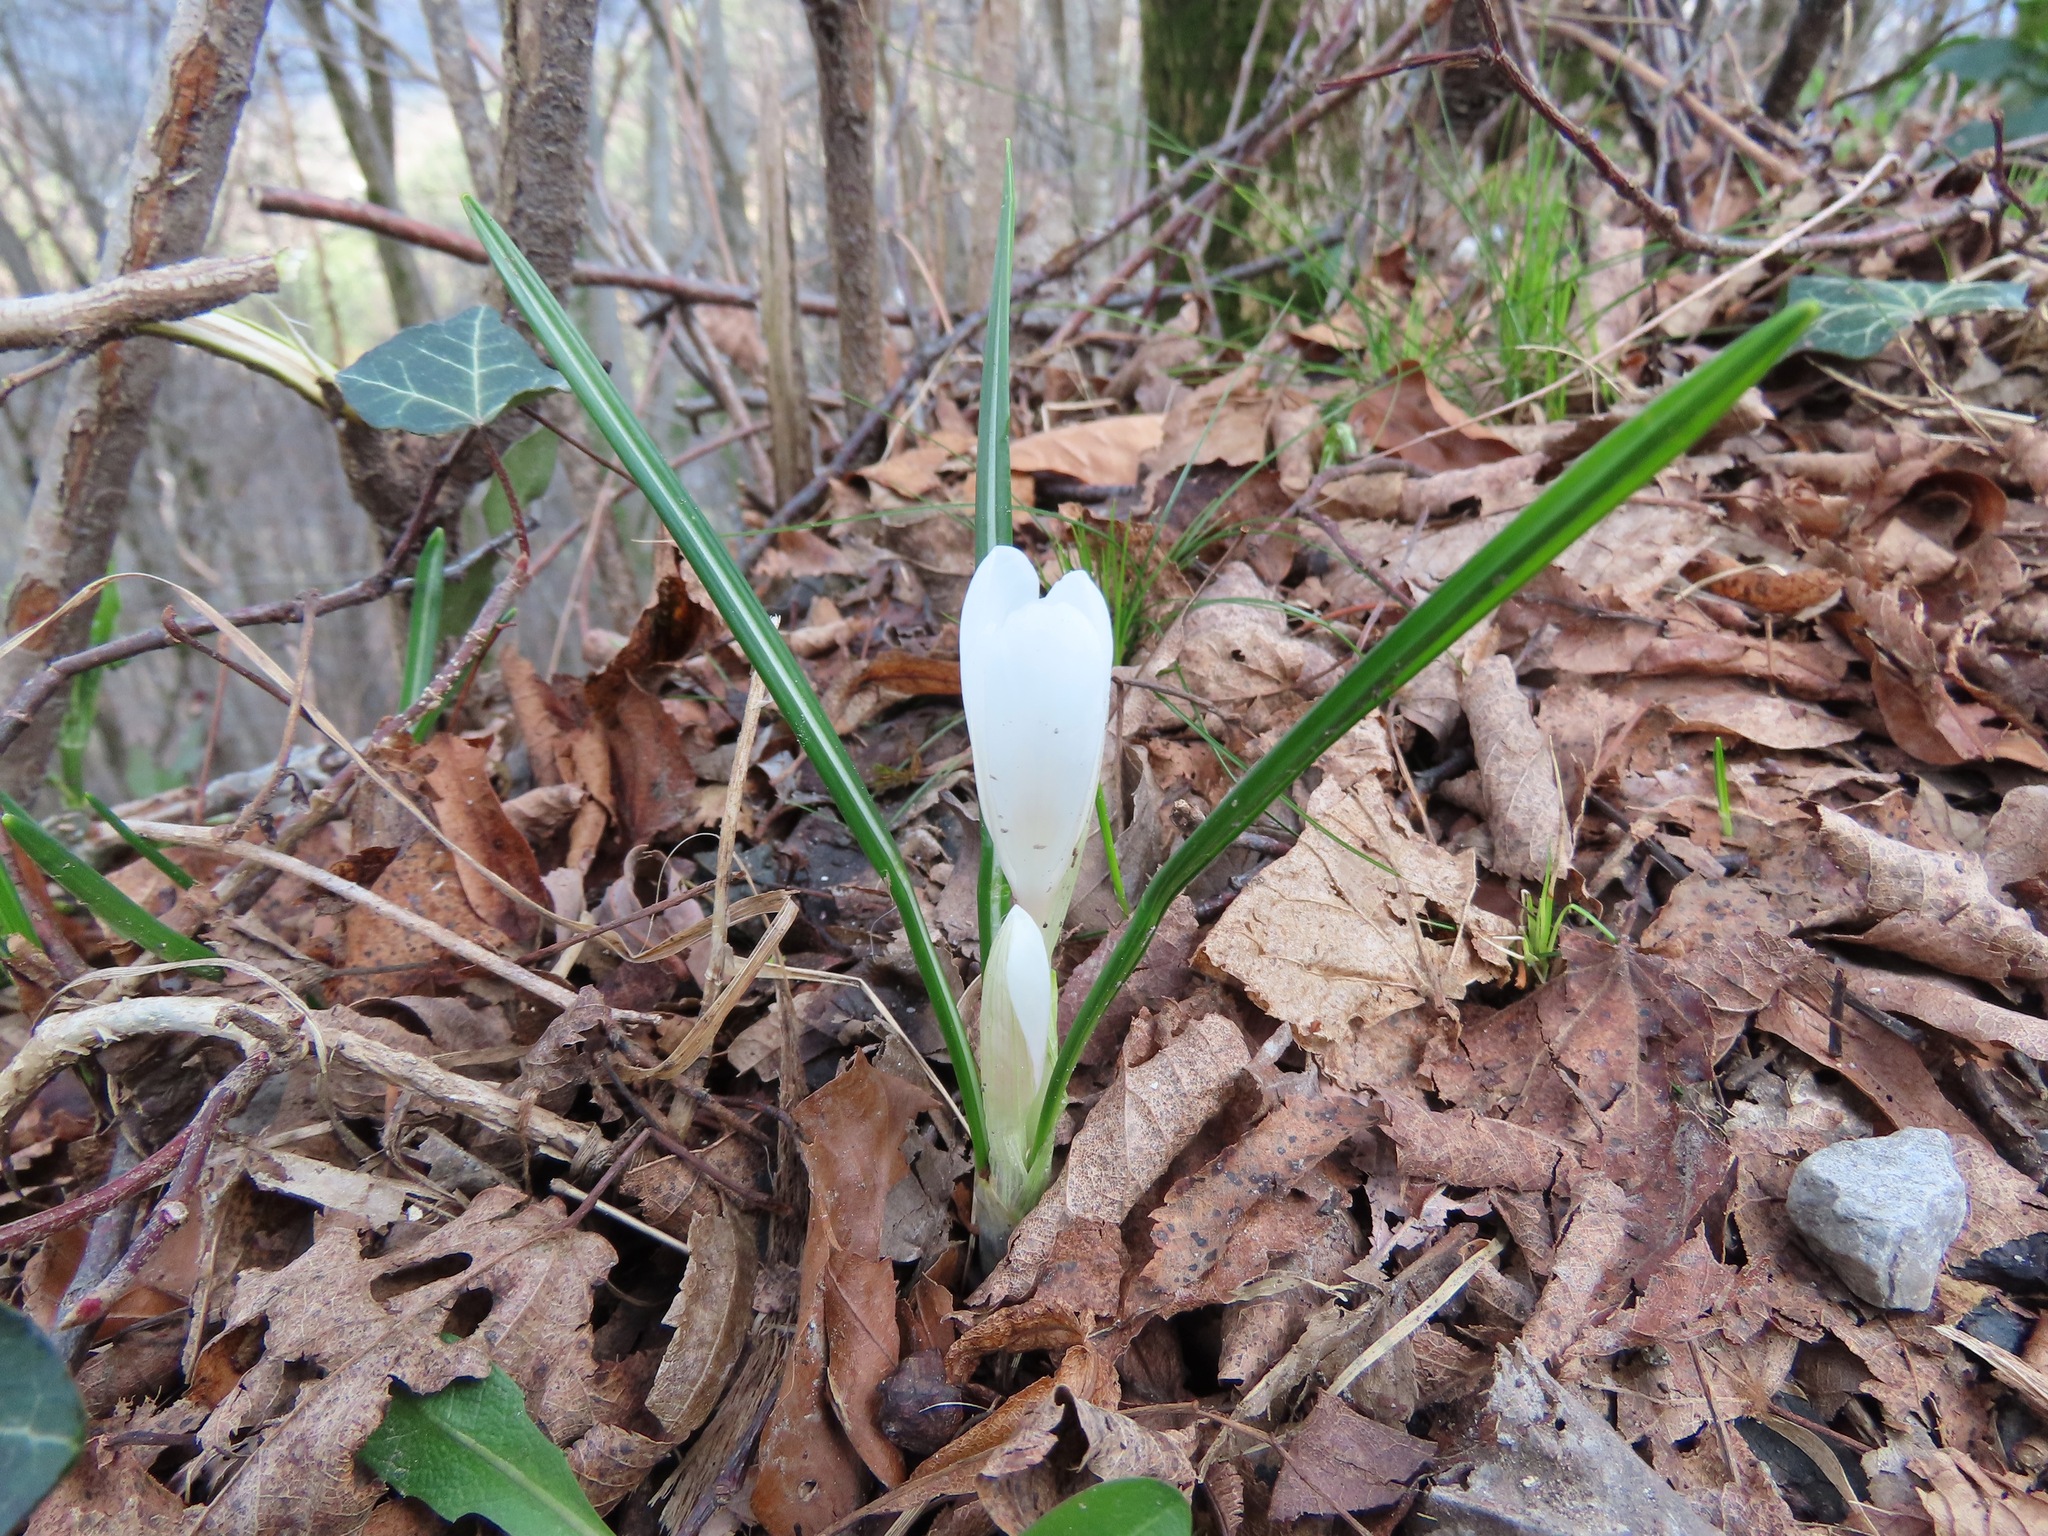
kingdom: Plantae
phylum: Tracheophyta
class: Liliopsida
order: Asparagales
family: Iridaceae
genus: Crocus
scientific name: Crocus vernus
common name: Spring crocus
